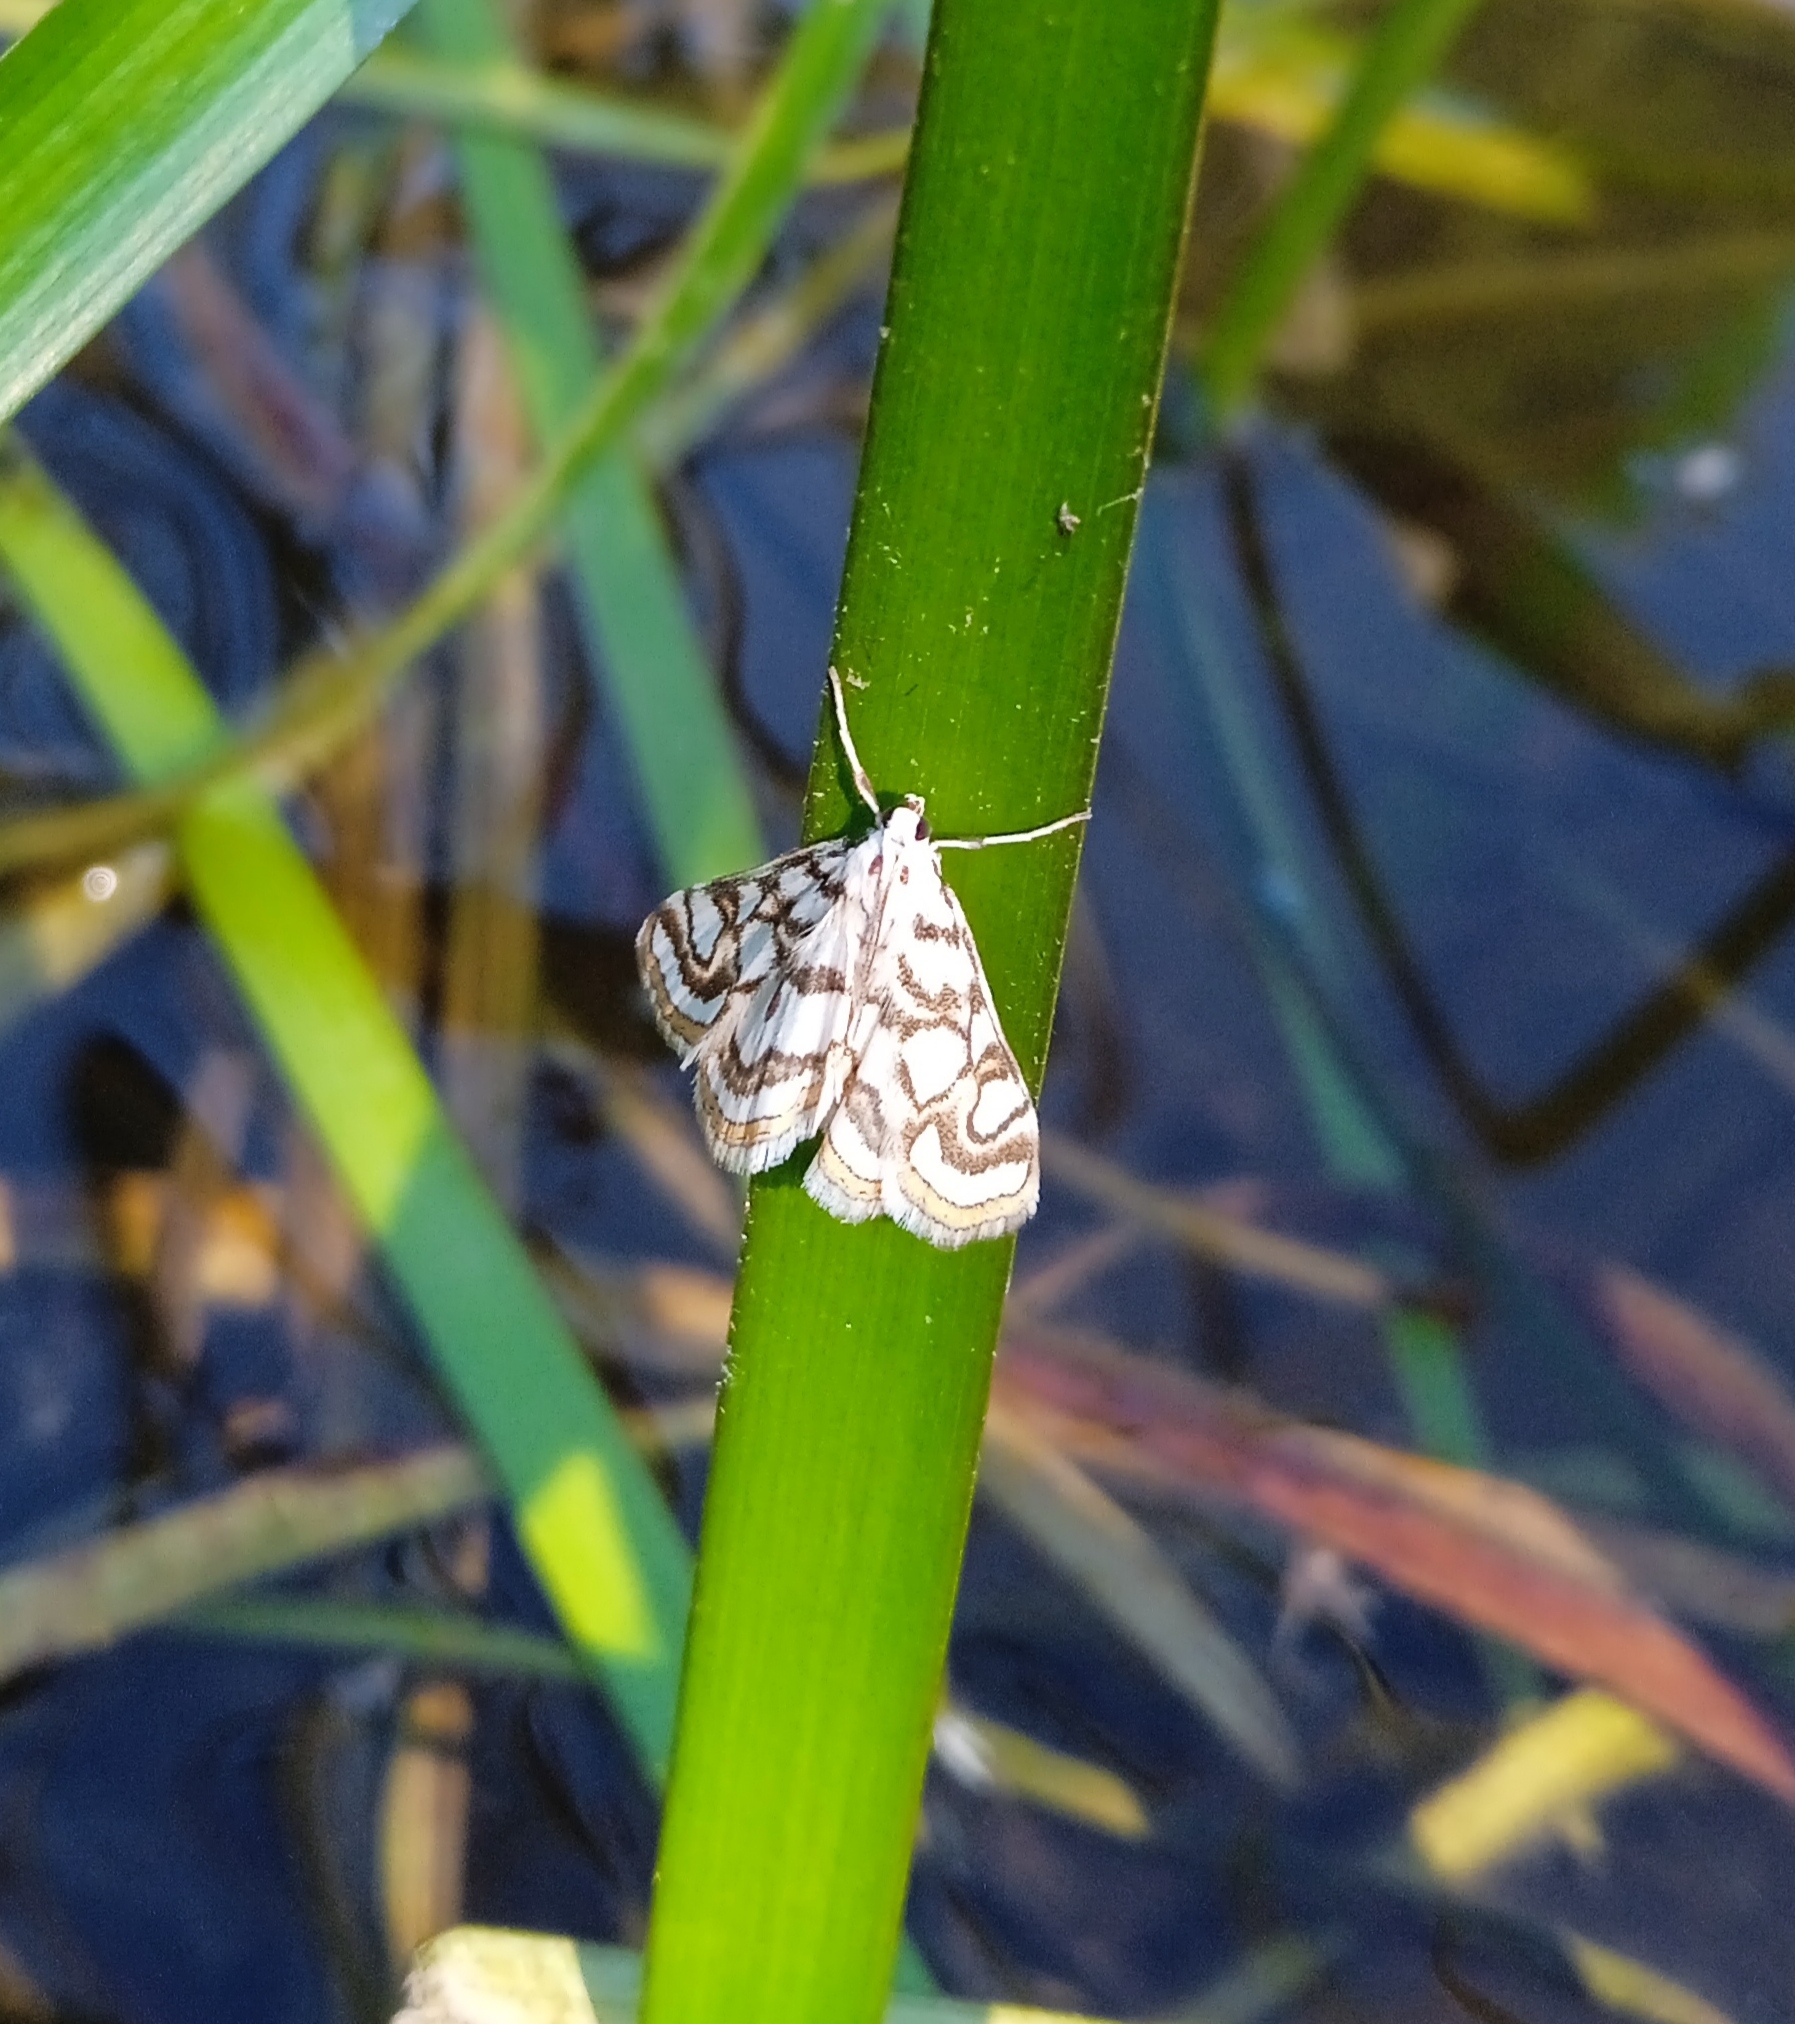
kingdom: Animalia
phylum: Arthropoda
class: Insecta
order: Lepidoptera
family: Crambidae
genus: Nymphula
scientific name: Nymphula nitidulata
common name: Beautiful china mark
